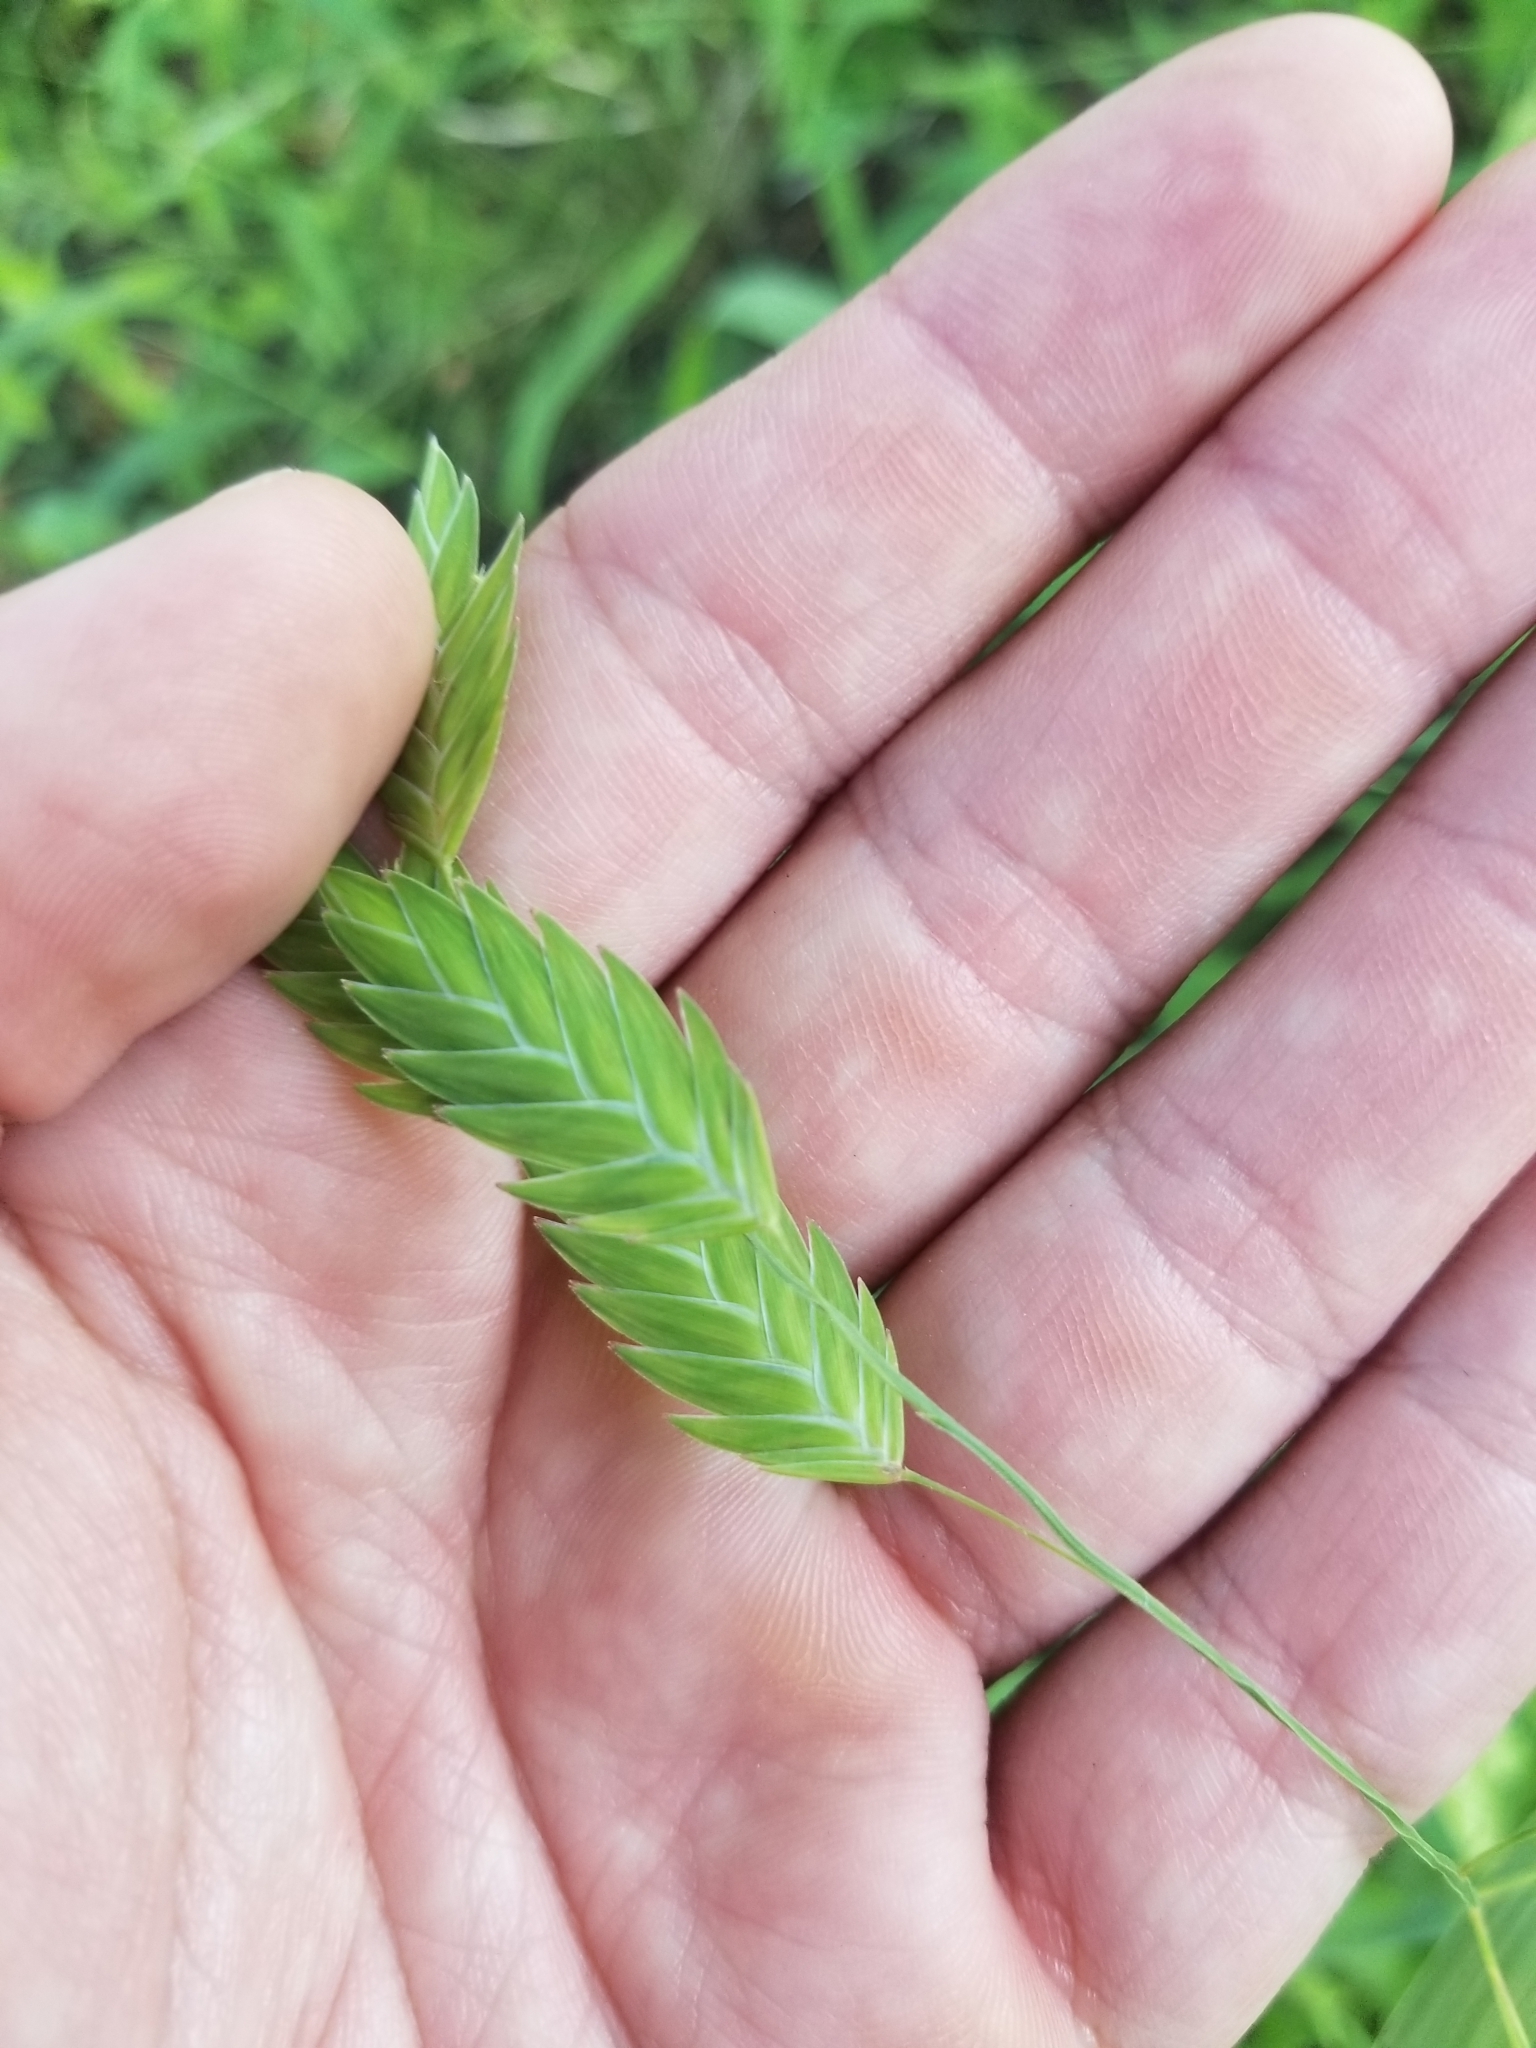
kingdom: Plantae
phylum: Tracheophyta
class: Liliopsida
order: Poales
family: Poaceae
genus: Chasmanthium
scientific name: Chasmanthium latifolium
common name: Broad-leaved chasmanthium
